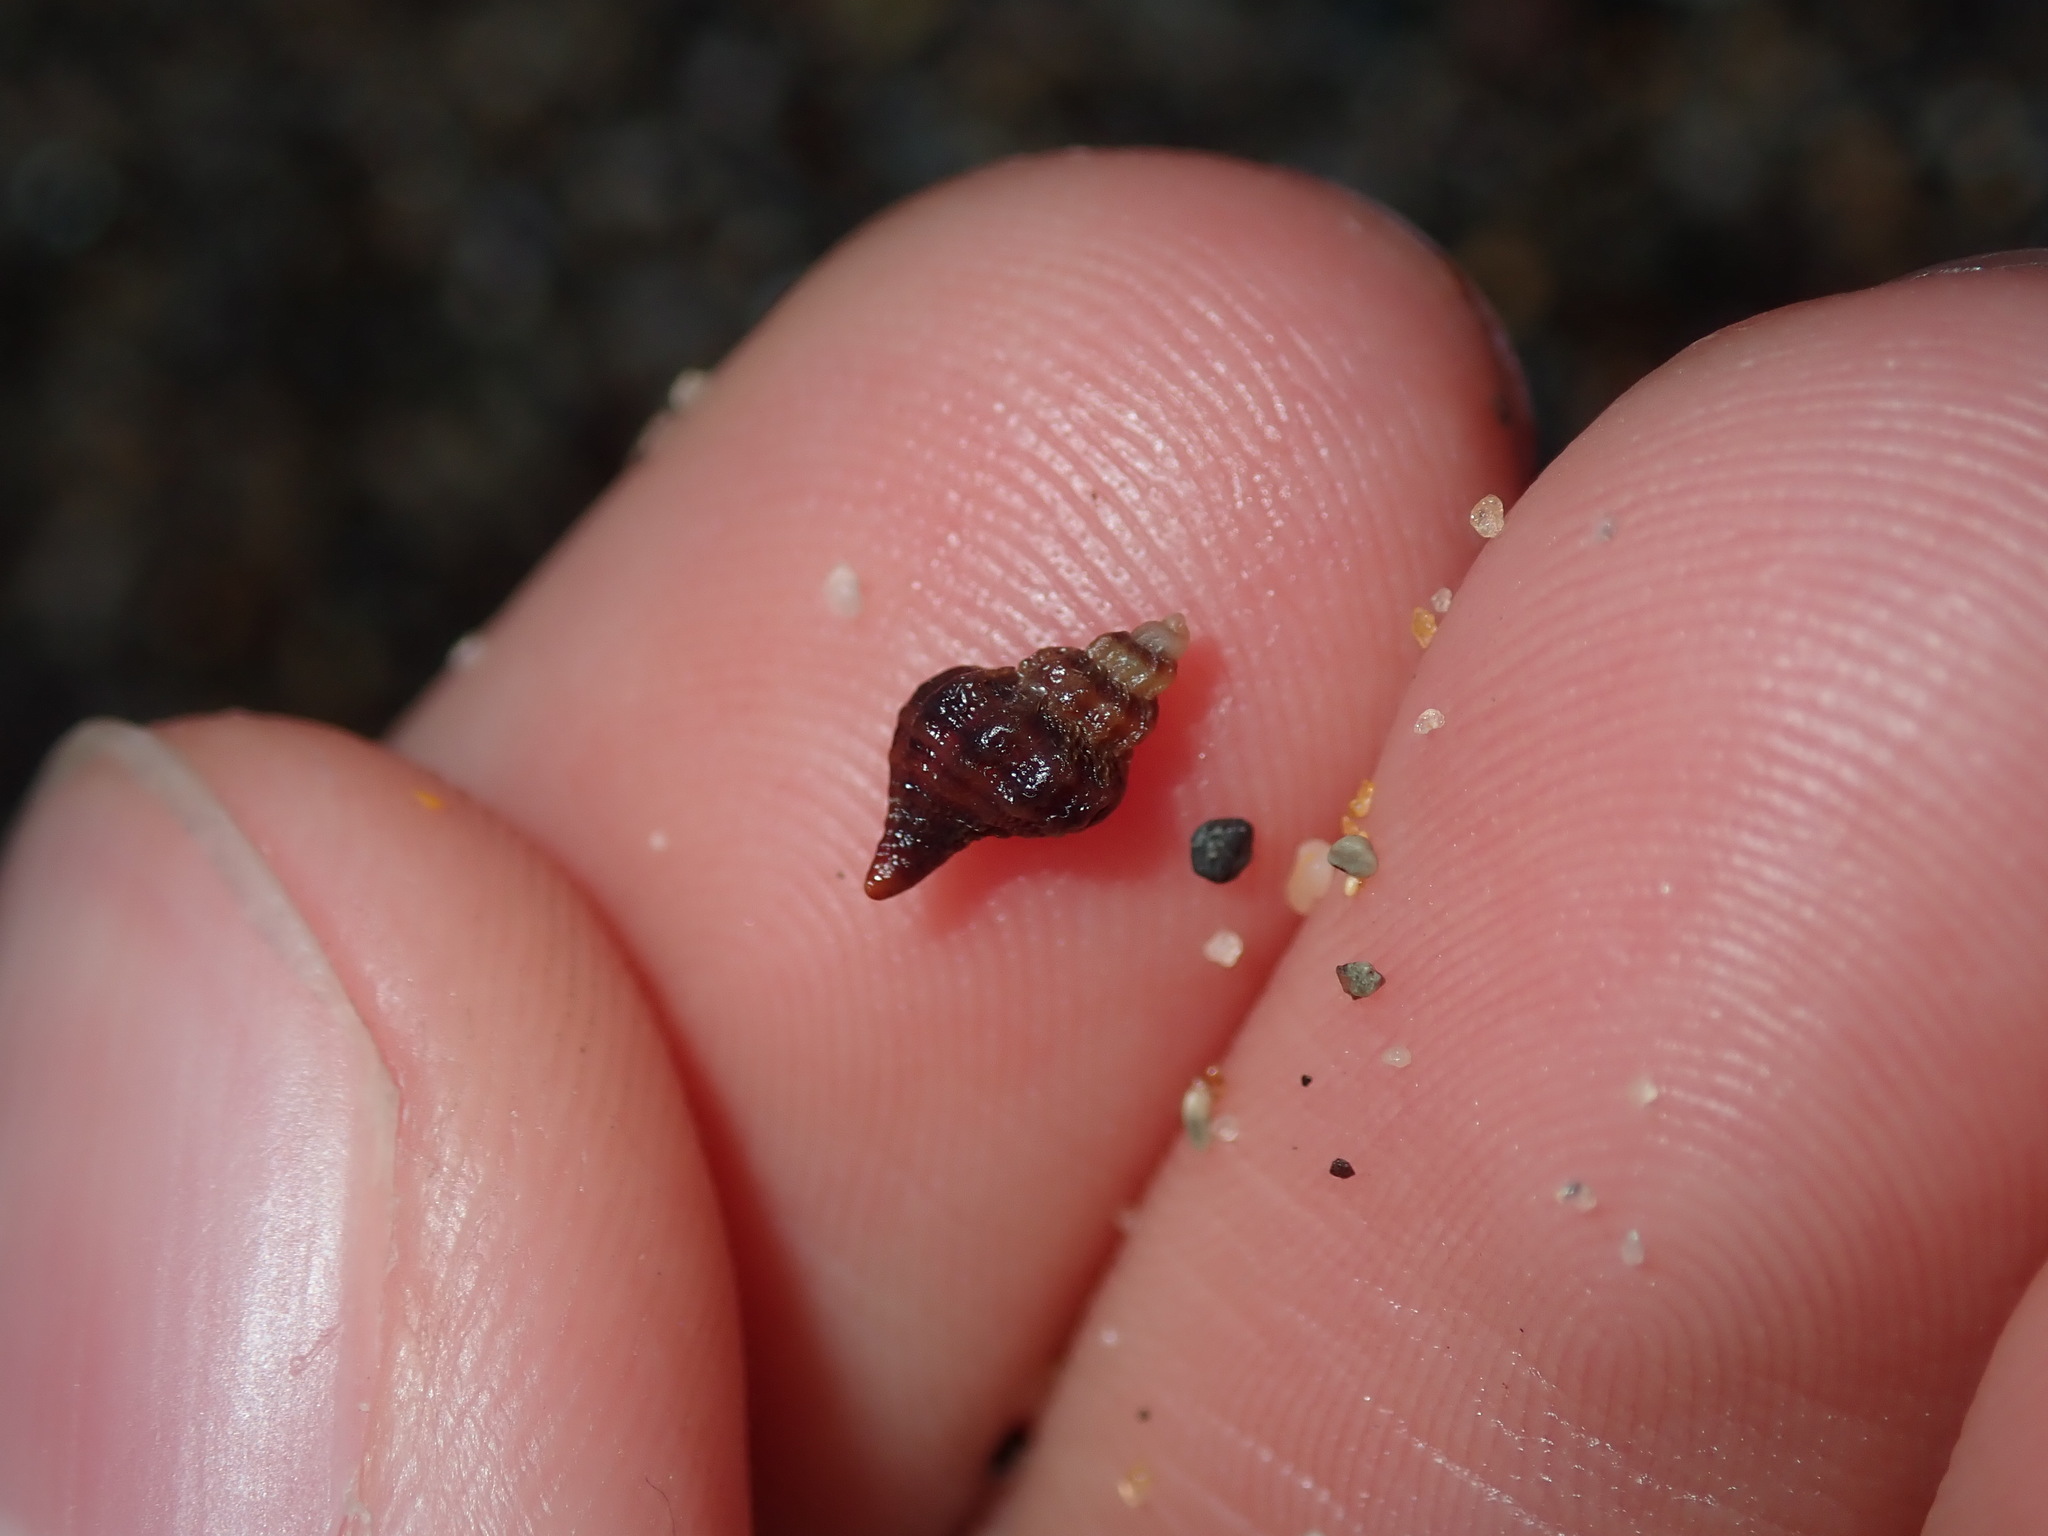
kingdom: Animalia
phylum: Mollusca
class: Gastropoda
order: Neogastropoda
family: Muricidae
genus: Bedeva
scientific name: Bedeva paivae
